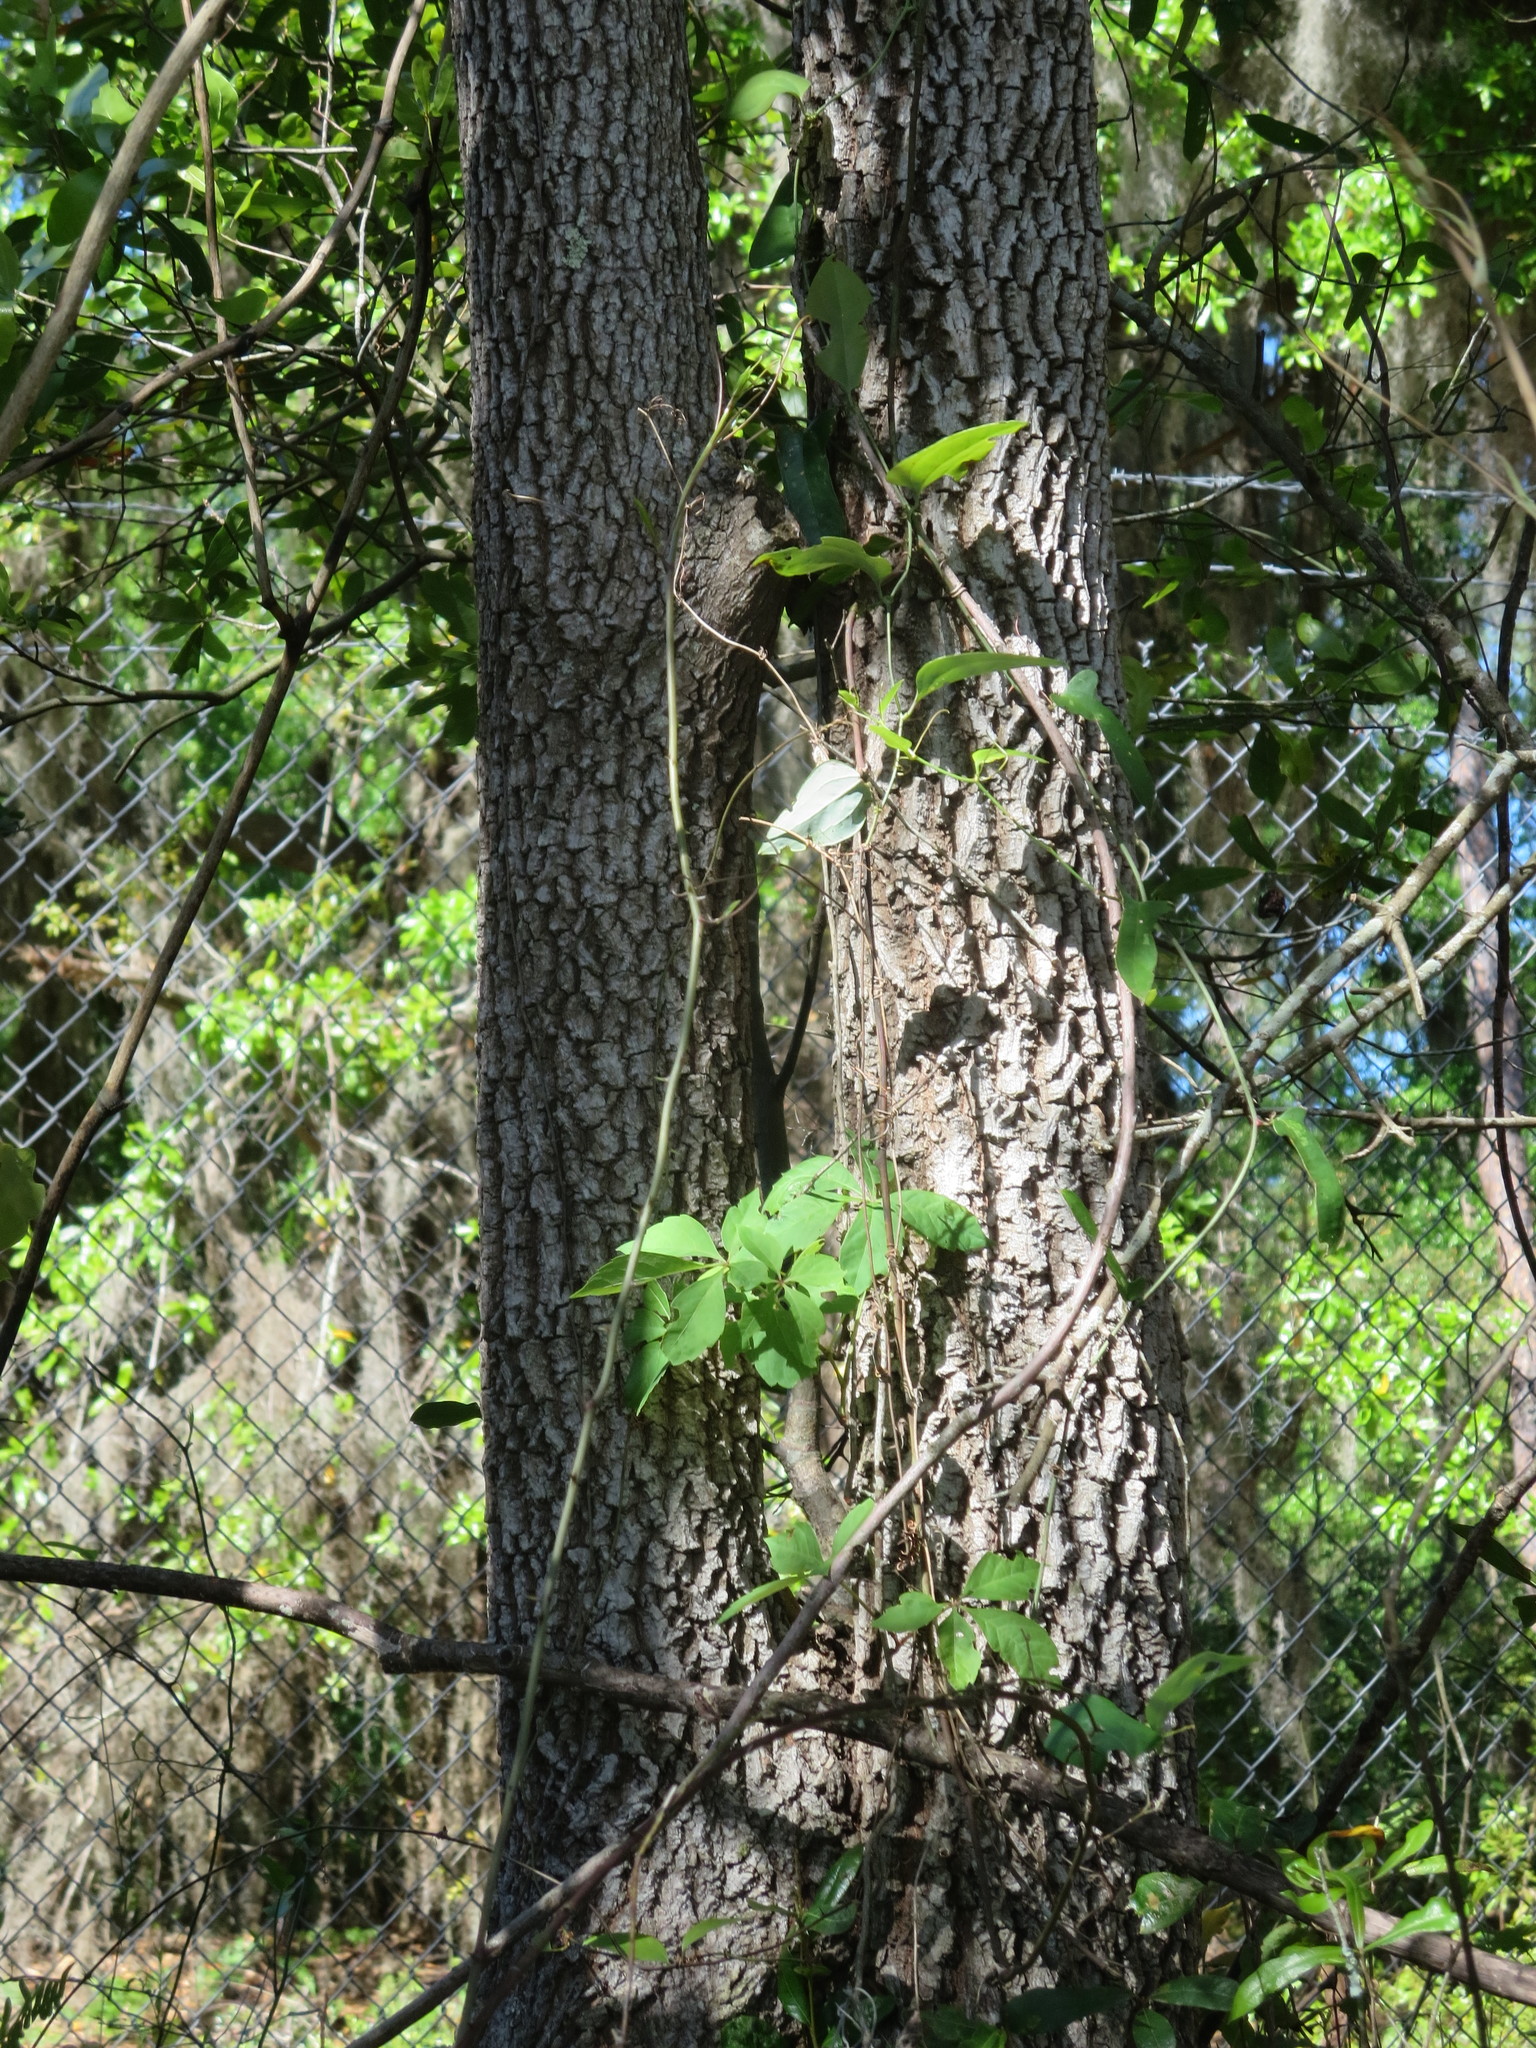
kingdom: Plantae
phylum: Tracheophyta
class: Magnoliopsida
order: Ericales
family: Ebenaceae
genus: Diospyros
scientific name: Diospyros virginiana
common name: Persimmon
